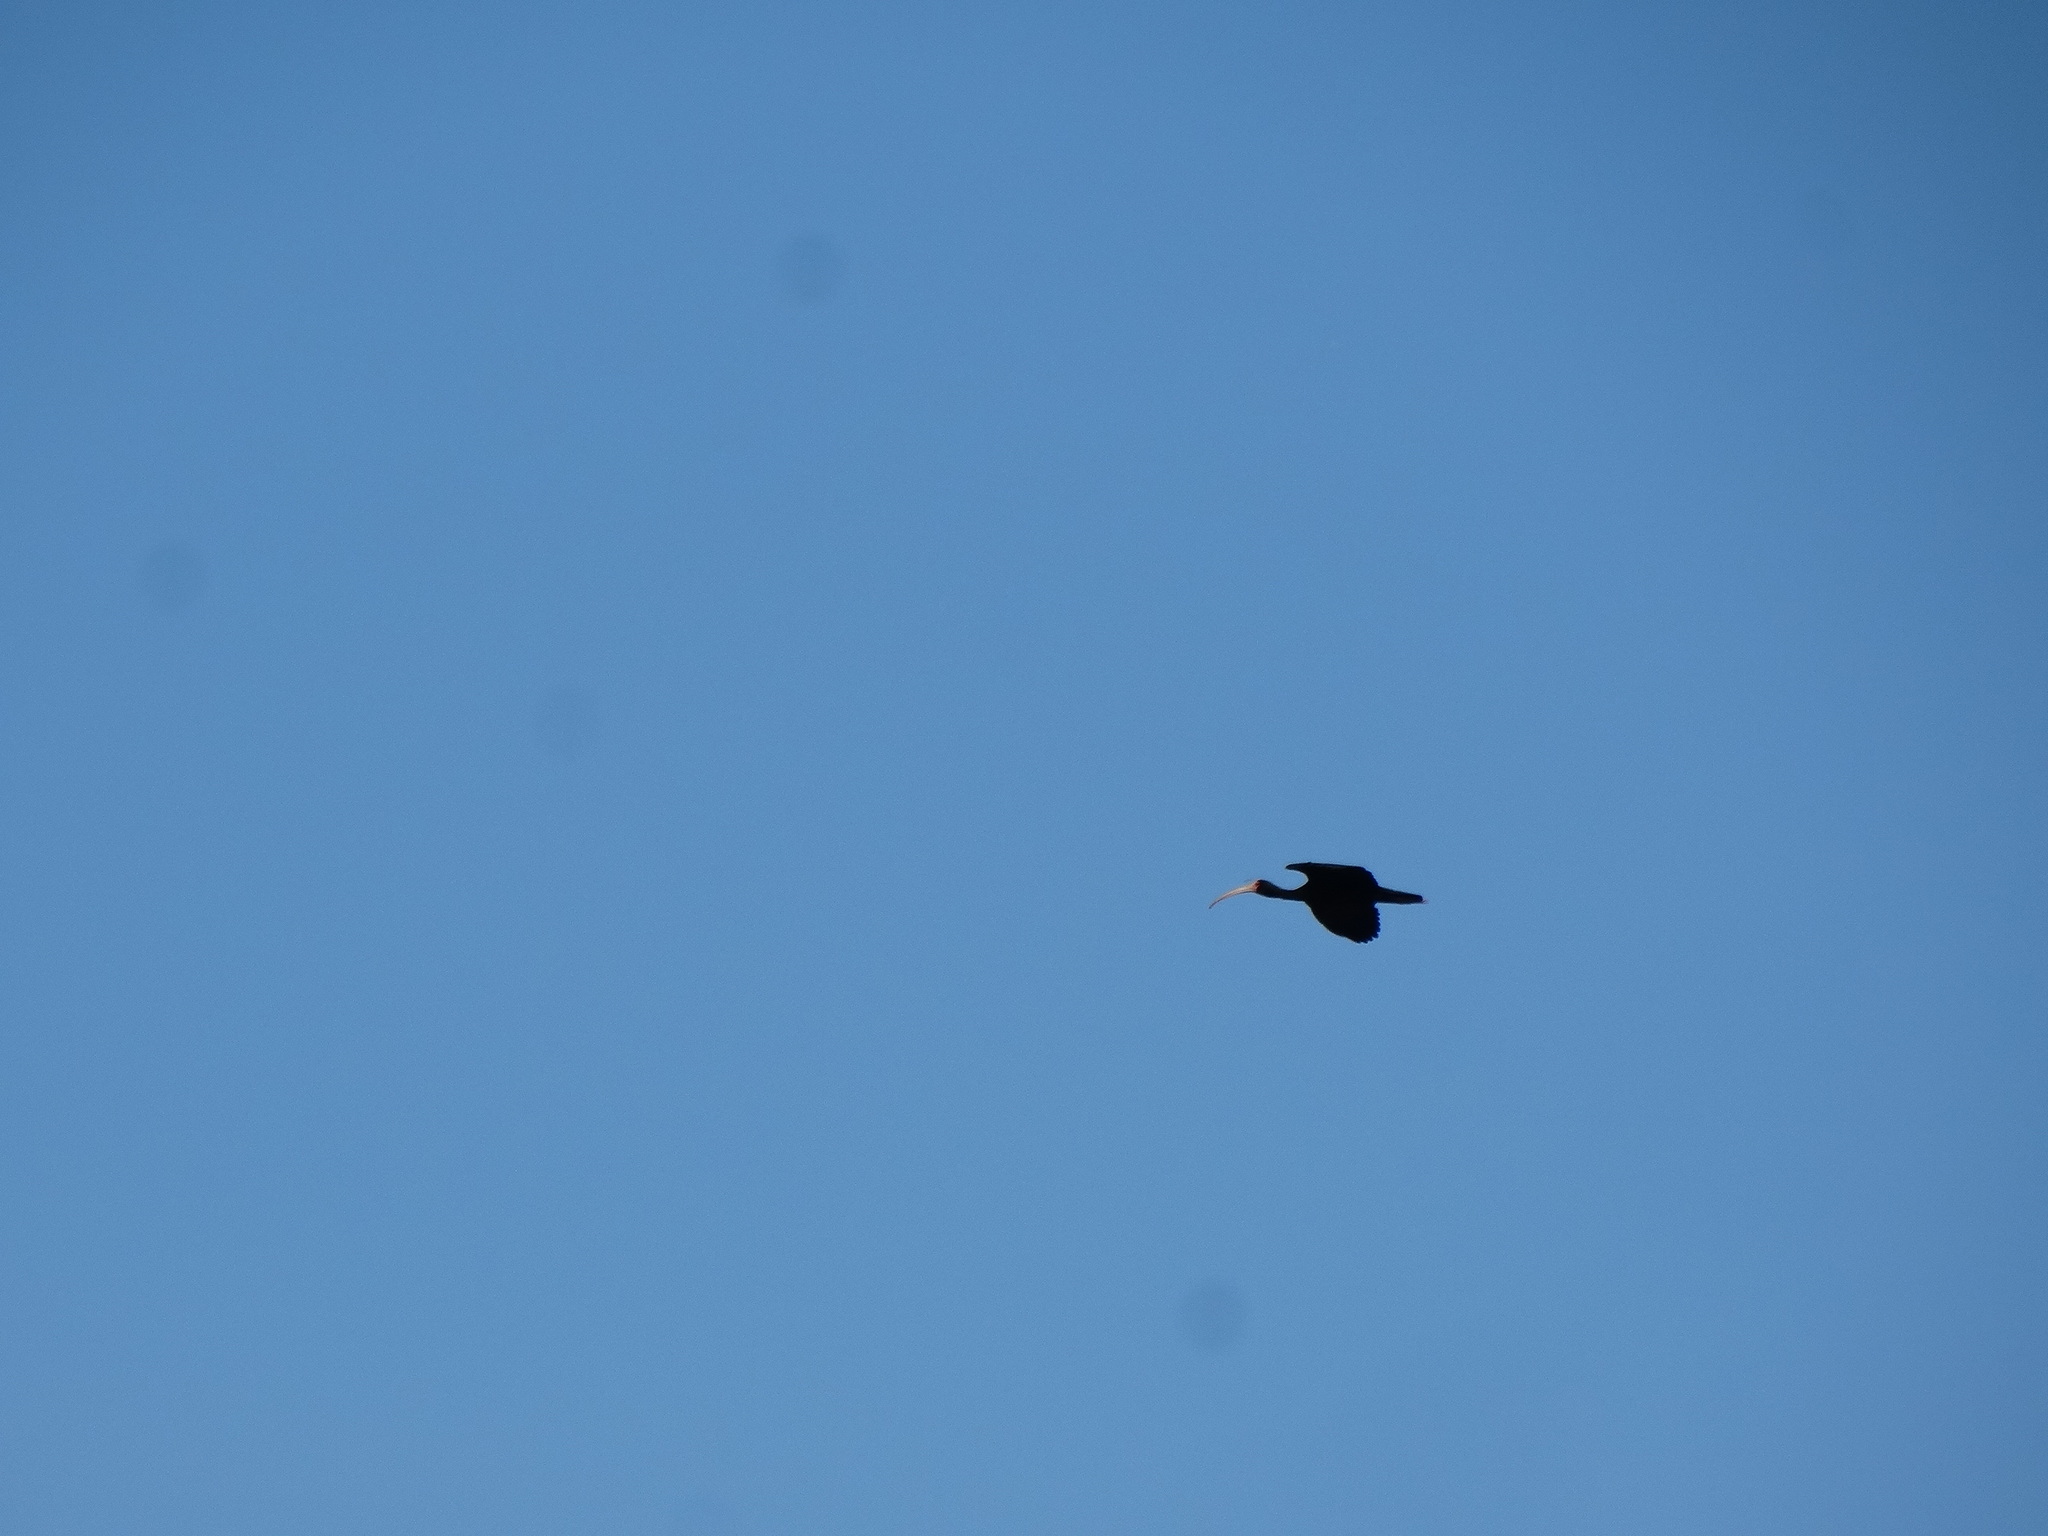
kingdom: Animalia
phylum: Chordata
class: Aves
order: Pelecaniformes
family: Threskiornithidae
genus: Phimosus
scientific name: Phimosus infuscatus
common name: Bare-faced ibis
